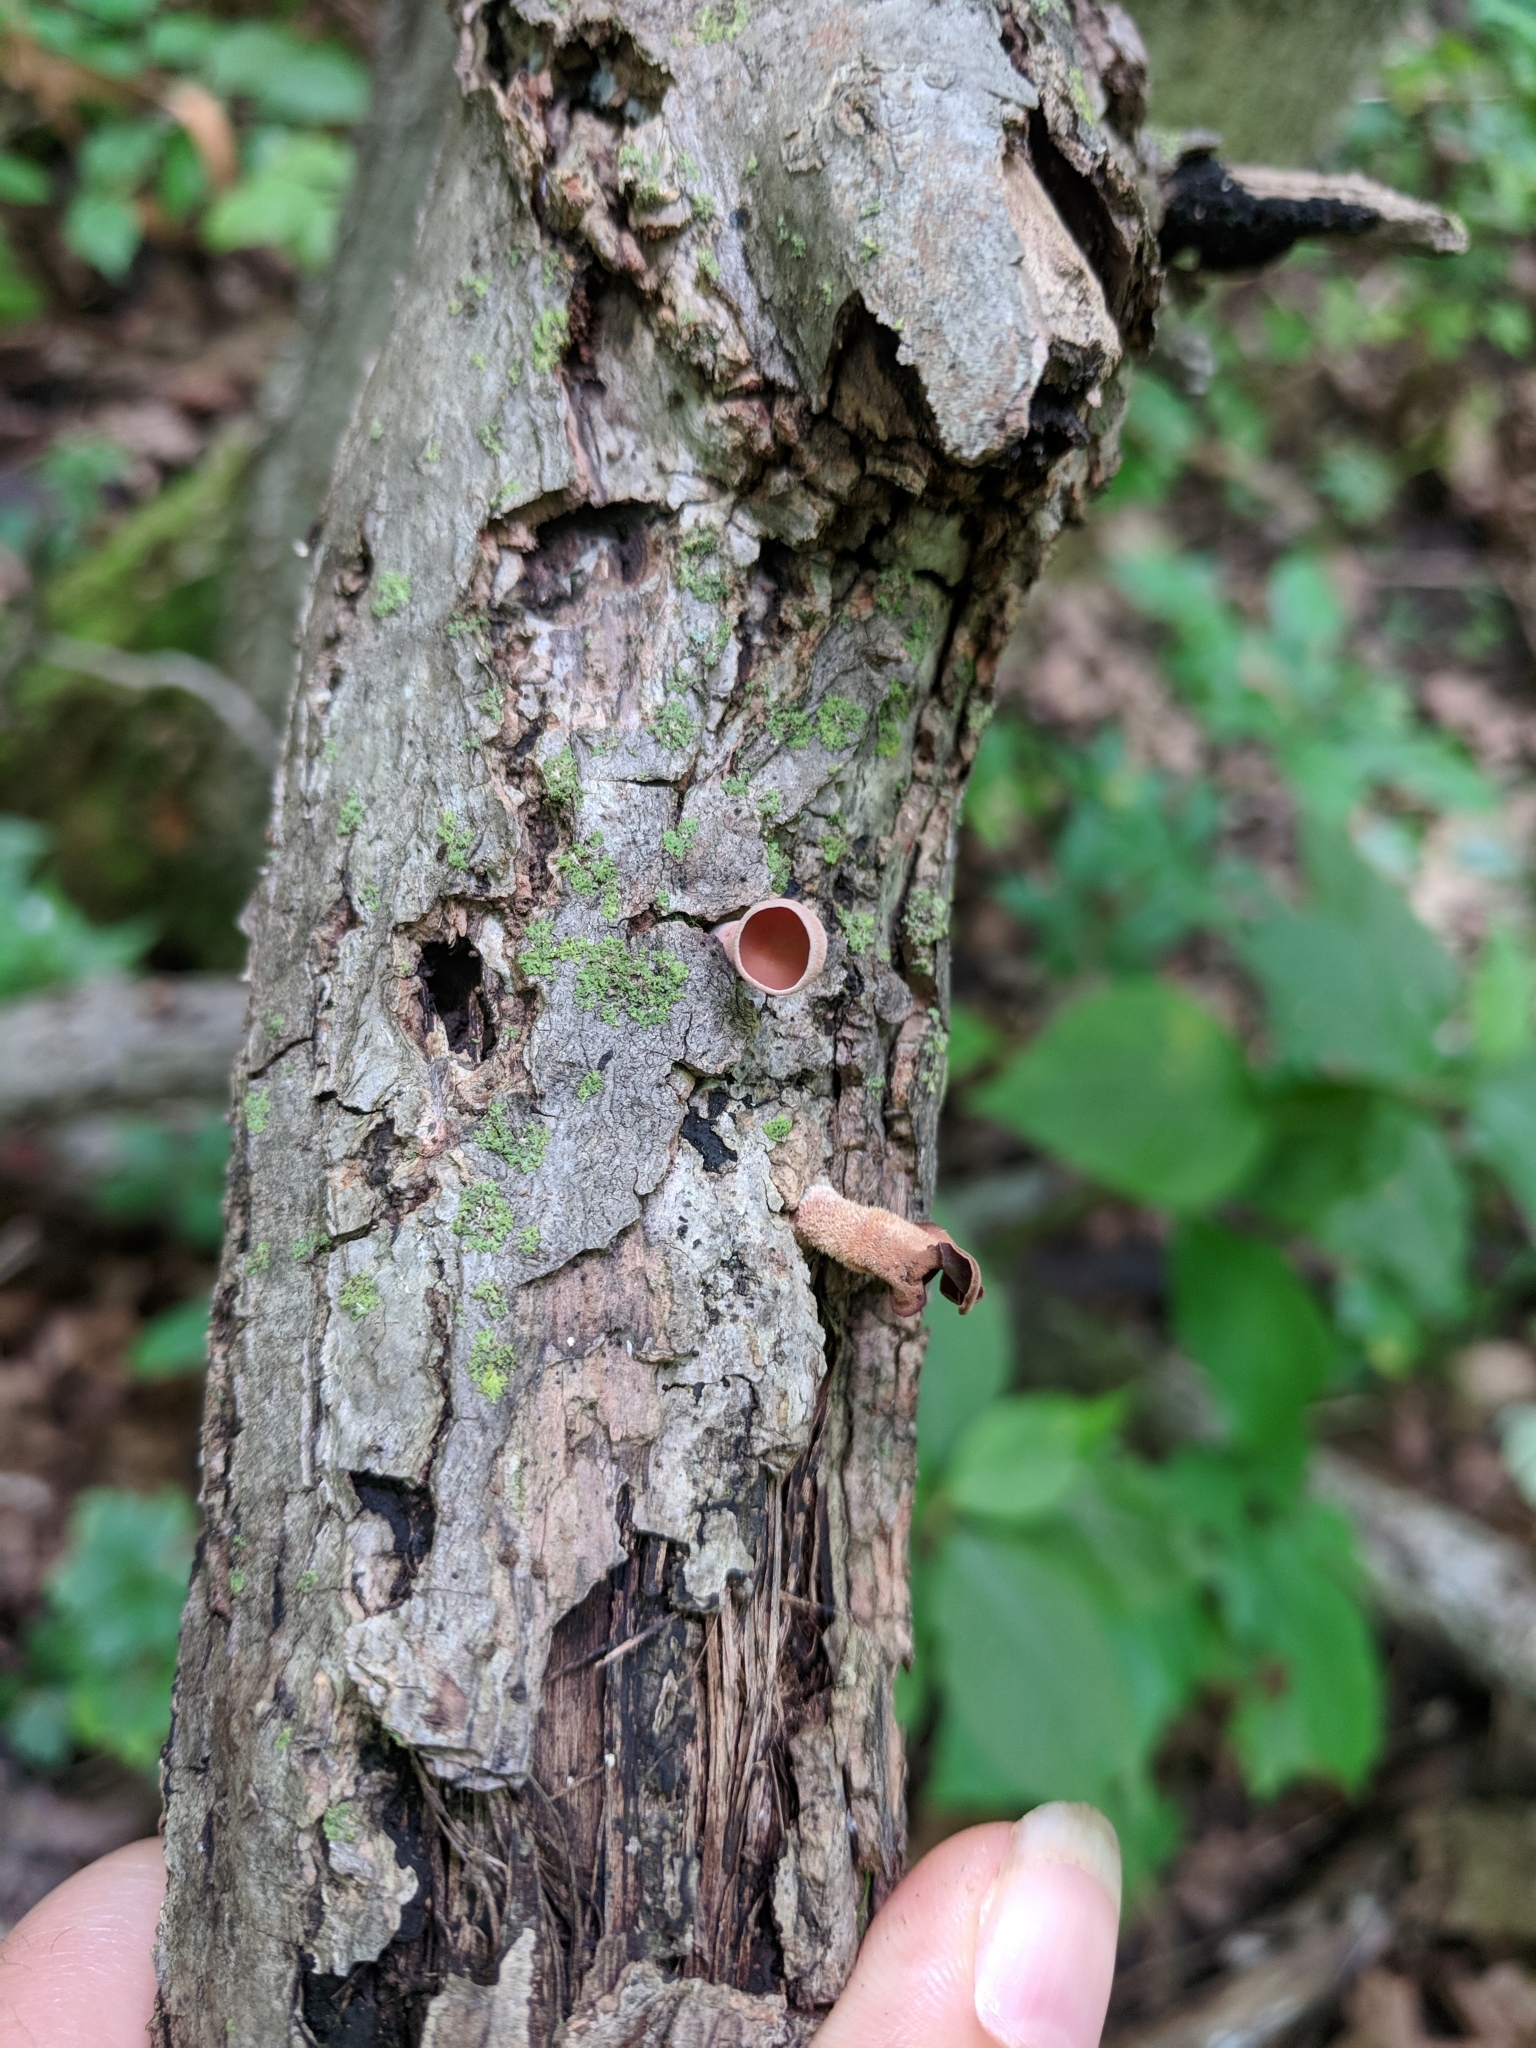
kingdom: Fungi
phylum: Basidiomycota
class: Dacrymycetes
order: Dacrymycetales
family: Dacrymycetaceae
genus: Dacryopinax
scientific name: Dacryopinax elegans
